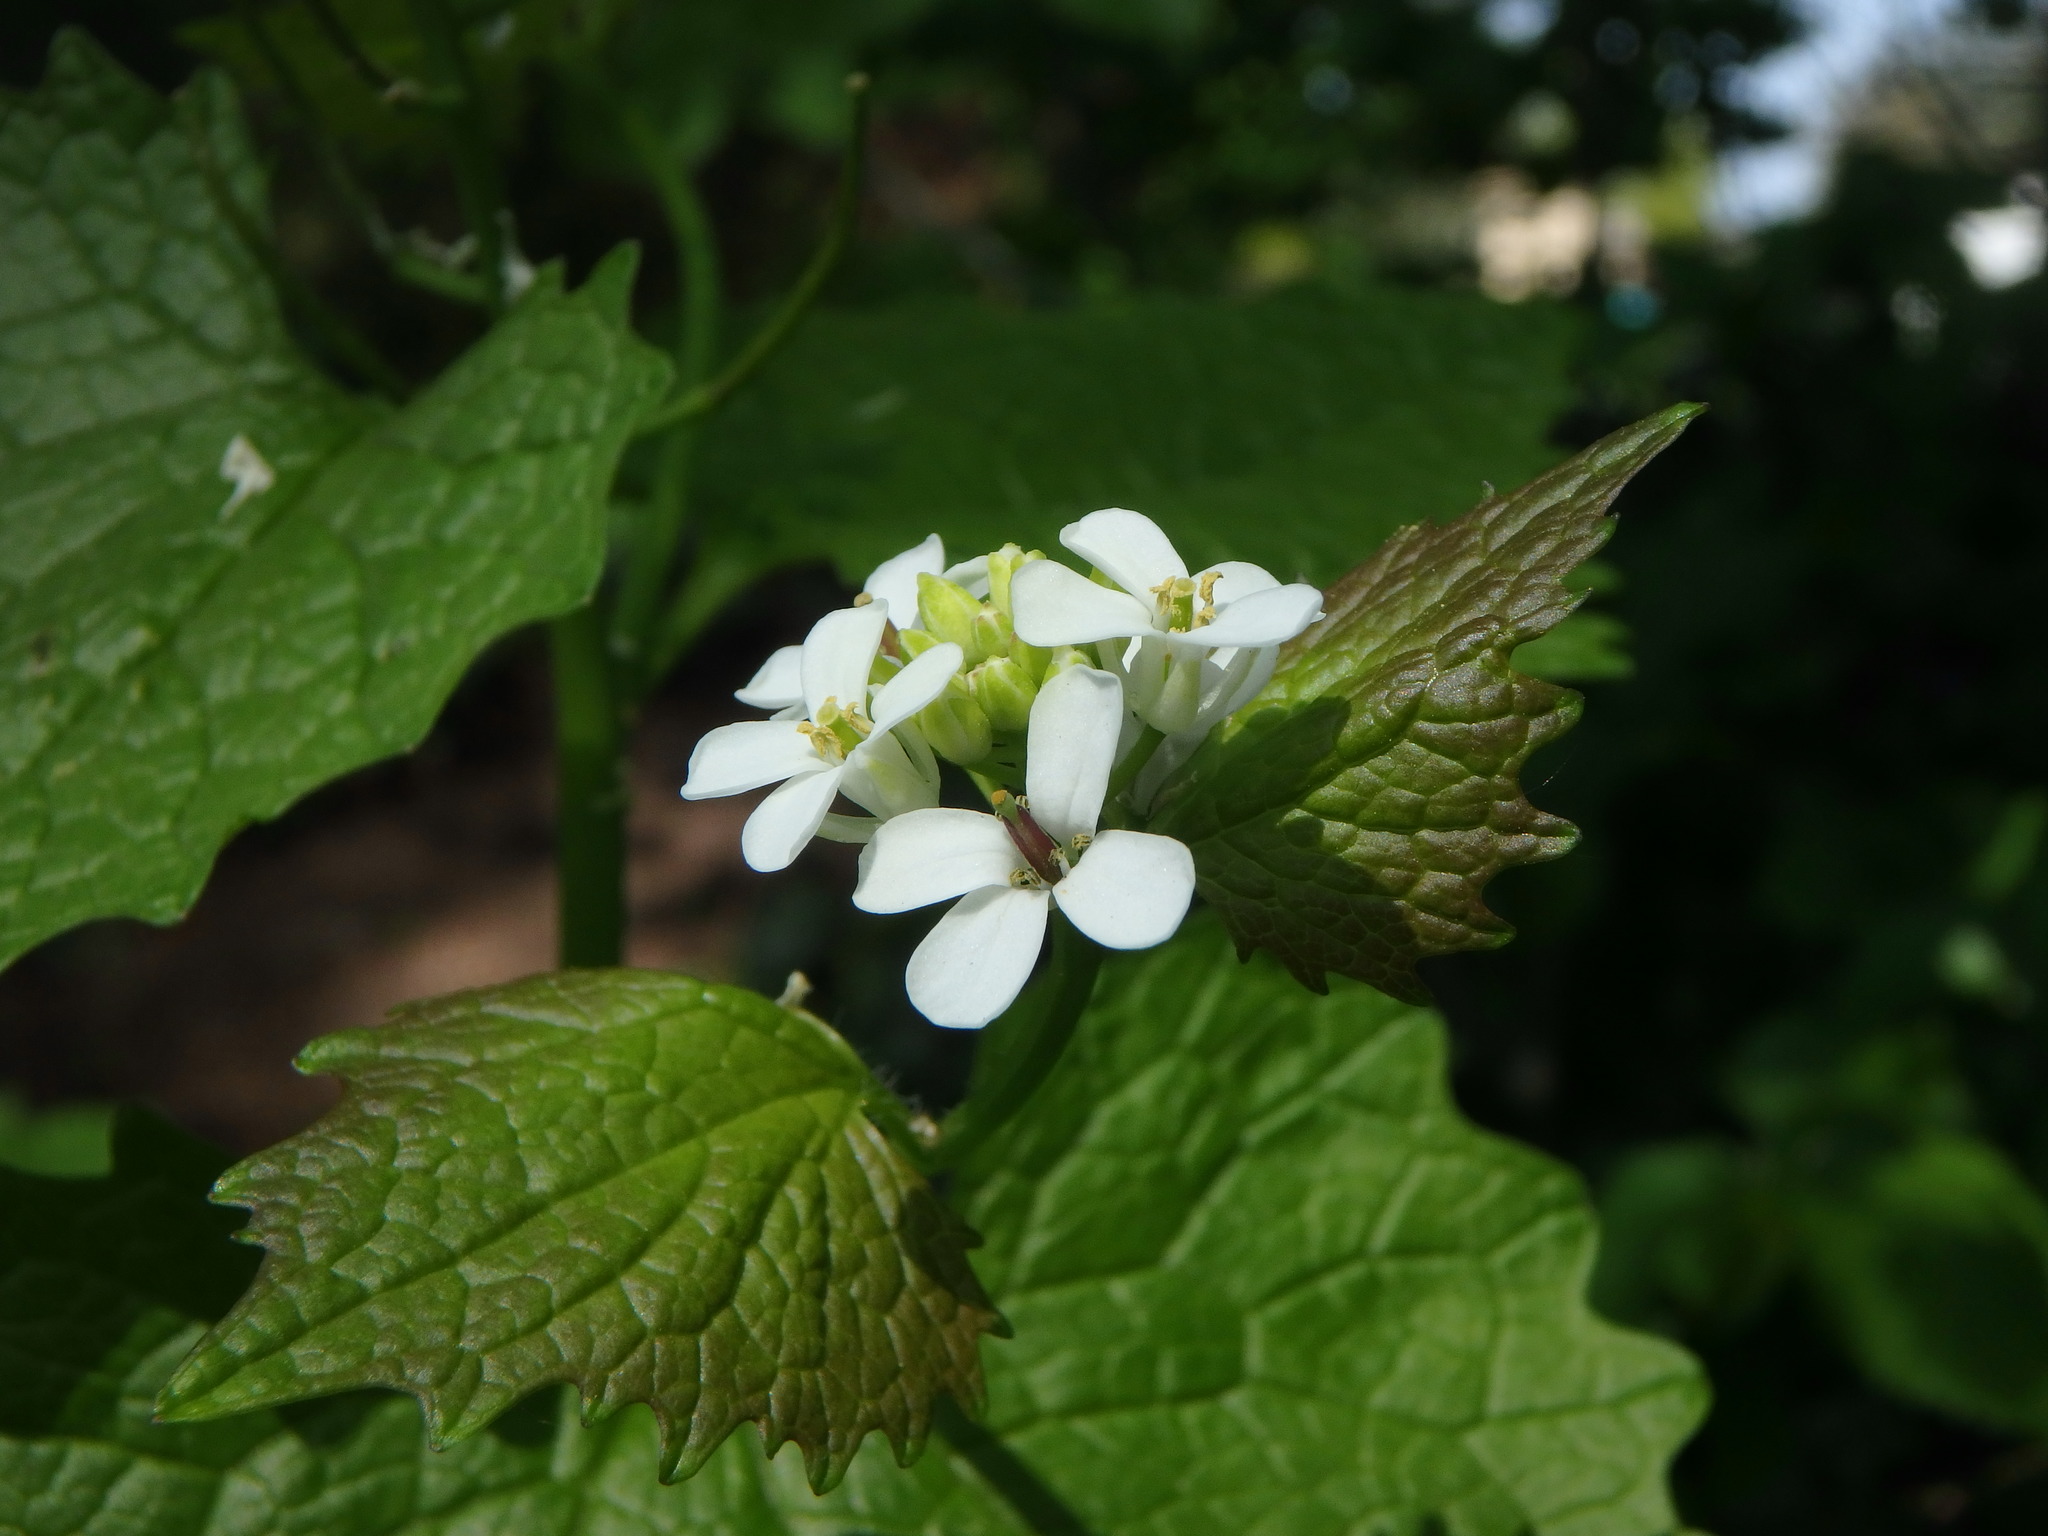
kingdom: Plantae
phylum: Tracheophyta
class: Magnoliopsida
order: Brassicales
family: Brassicaceae
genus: Alliaria
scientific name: Alliaria petiolata
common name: Garlic mustard
